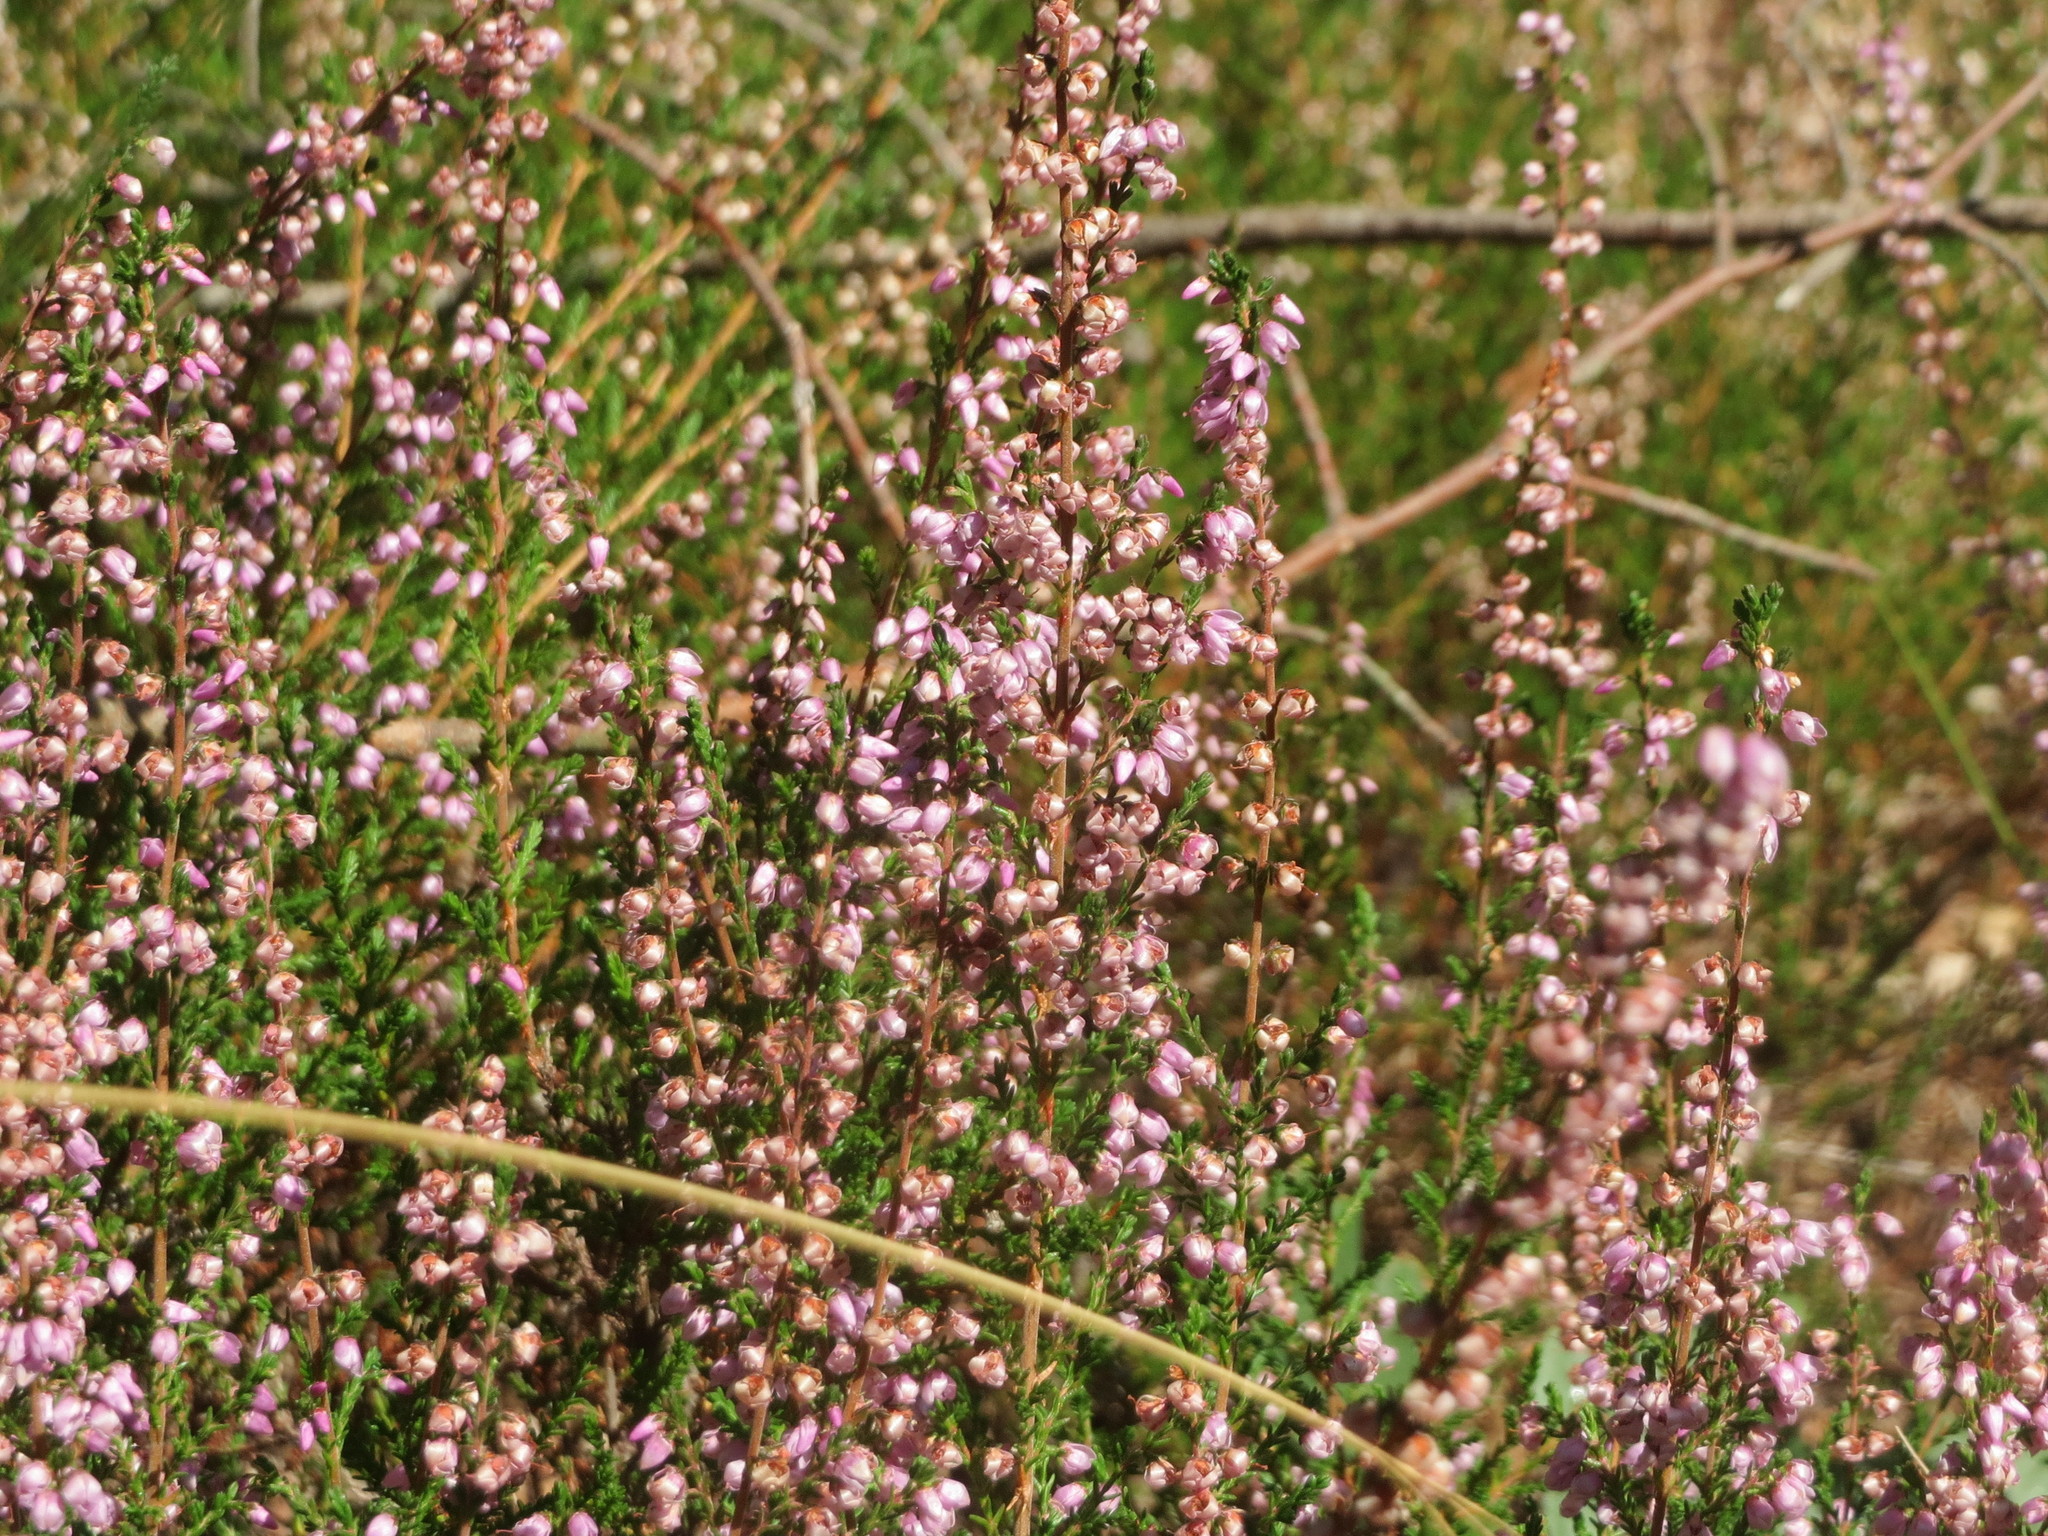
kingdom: Plantae
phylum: Tracheophyta
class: Magnoliopsida
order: Ericales
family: Ericaceae
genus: Calluna
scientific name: Calluna vulgaris
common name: Heather
